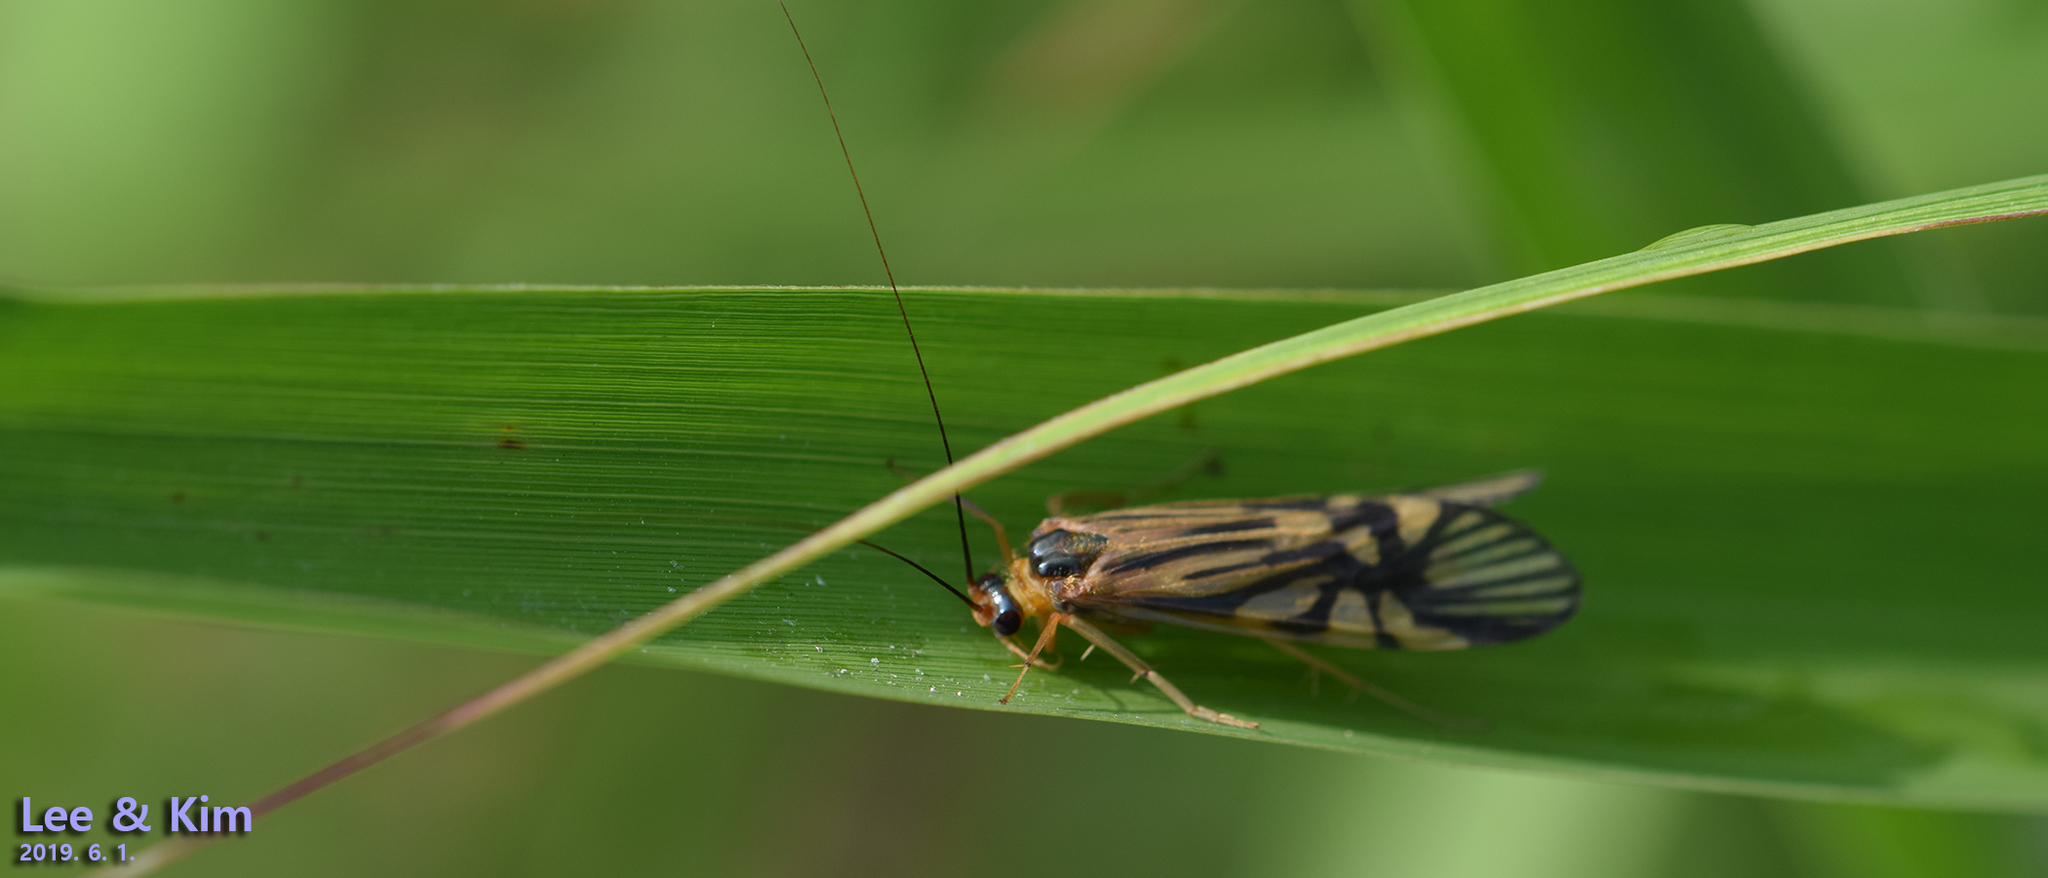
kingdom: Animalia
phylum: Arthropoda
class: Insecta
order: Trichoptera
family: Hydropsychidae
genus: Macrostemum
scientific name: Macrostemum radiatum
